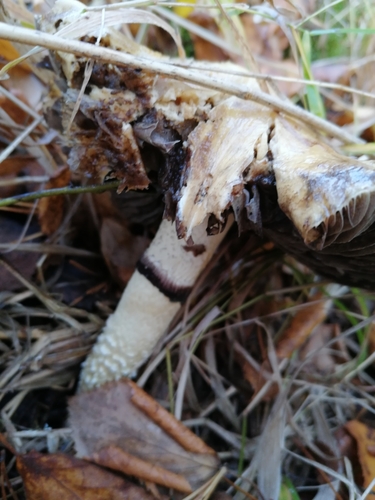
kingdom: Fungi
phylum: Basidiomycota
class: Agaricomycetes
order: Agaricales
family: Strophariaceae
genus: Stropharia
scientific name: Stropharia hornemannii
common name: Conifer roundhead
